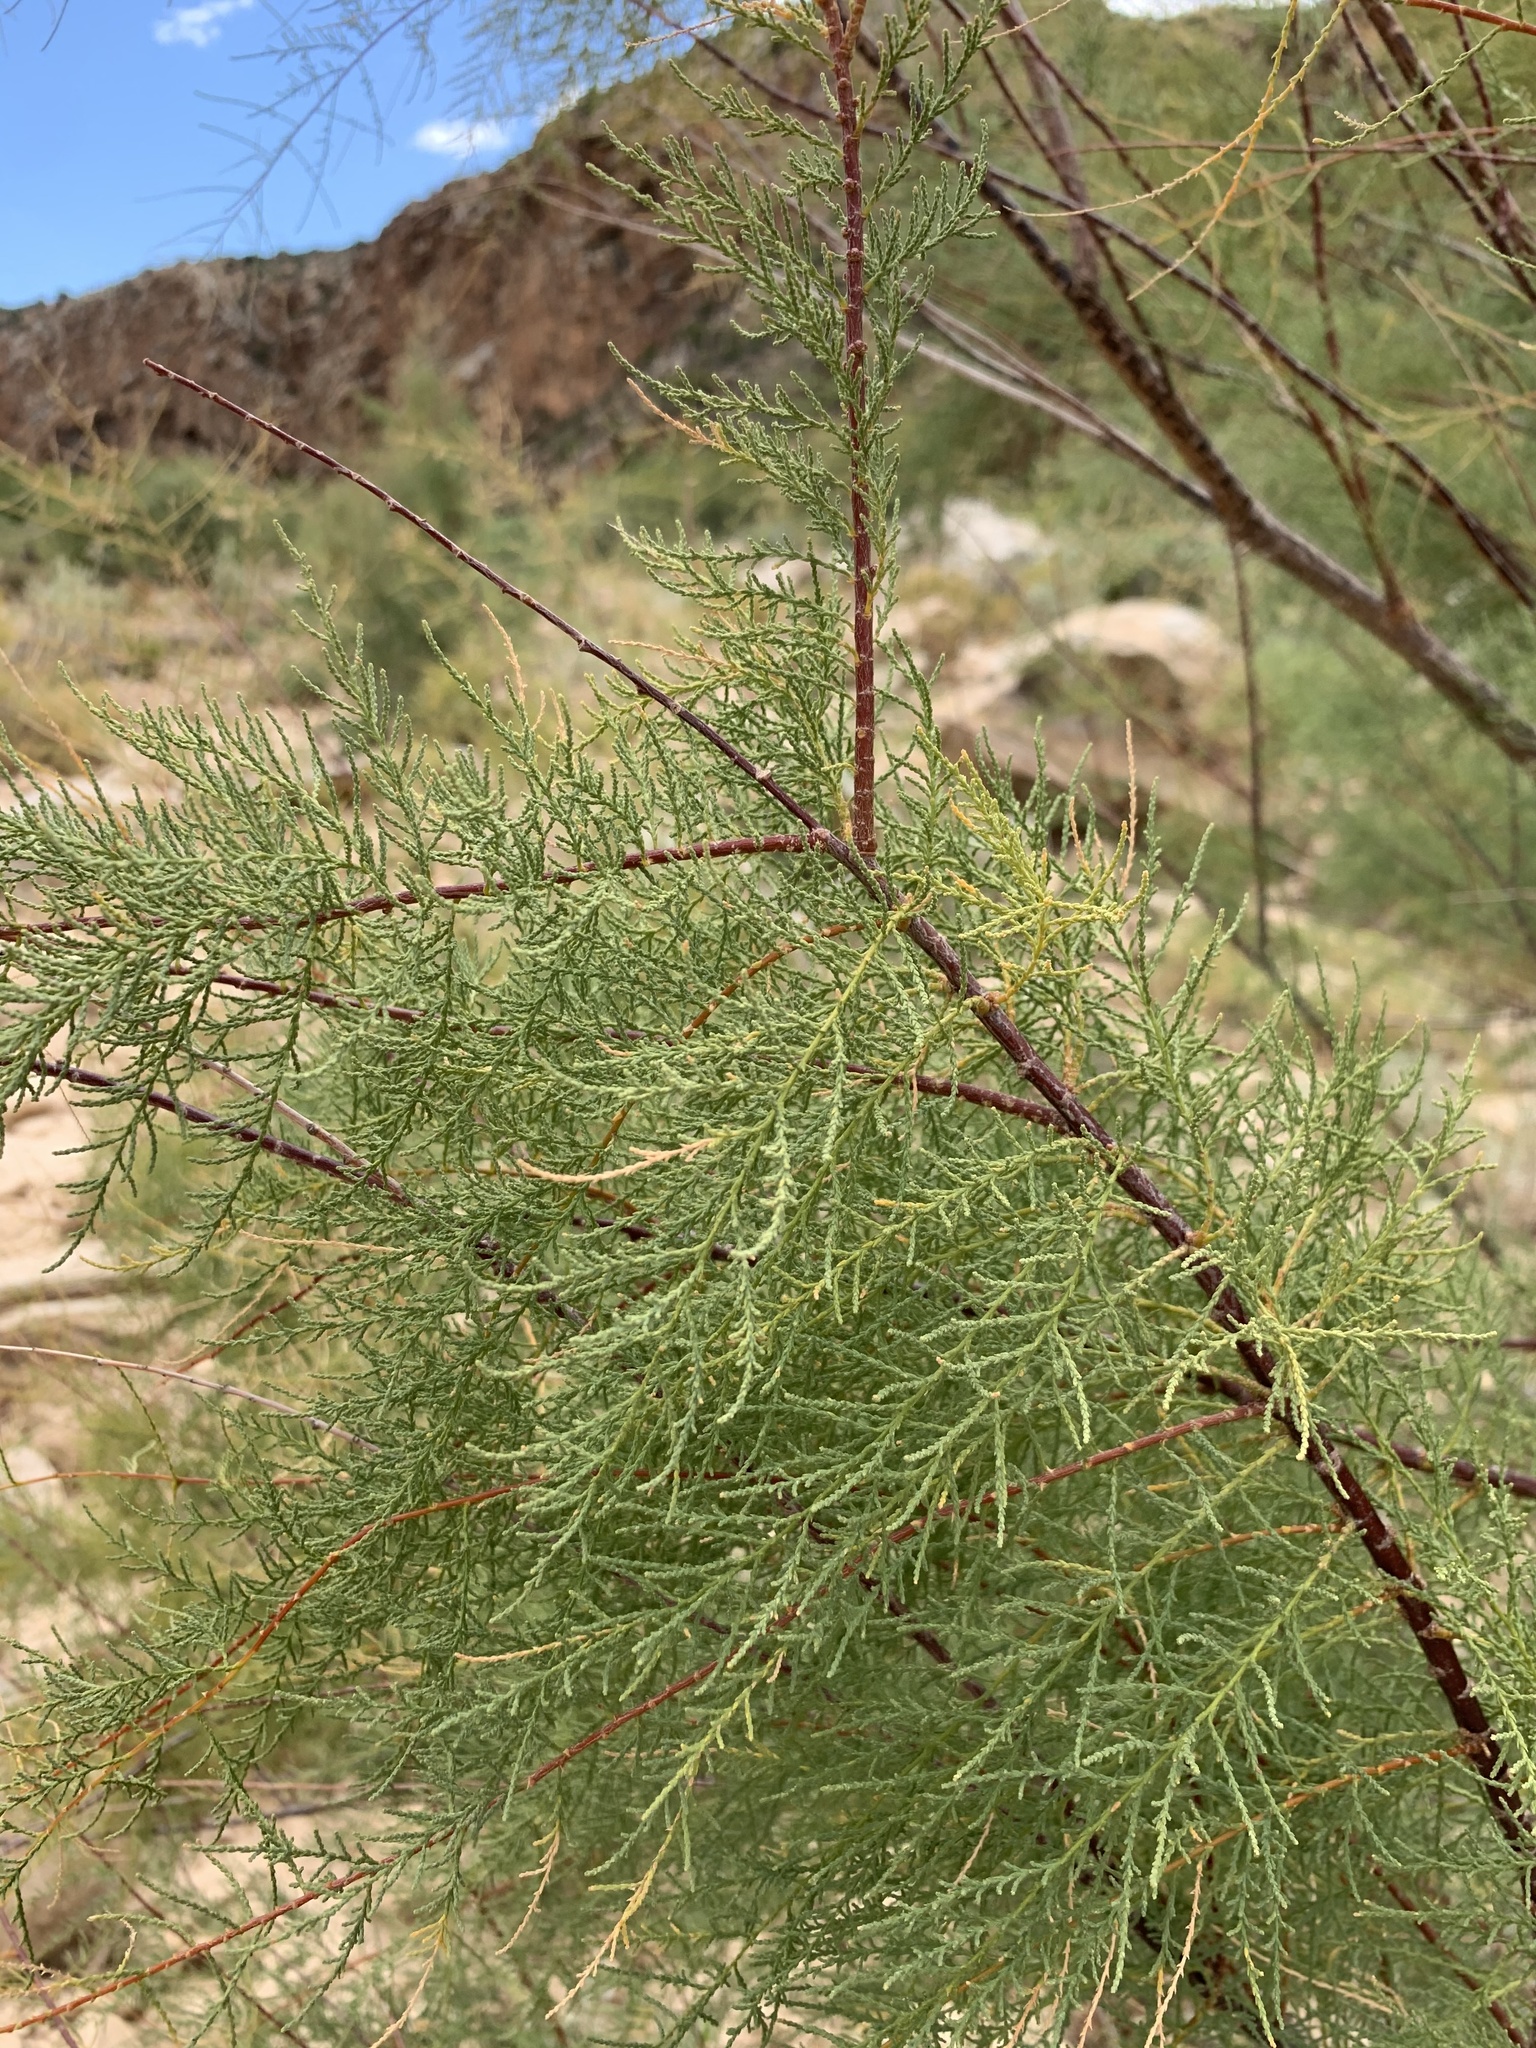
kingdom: Plantae
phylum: Tracheophyta
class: Magnoliopsida
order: Caryophyllales
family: Tamaricaceae
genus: Tamarix
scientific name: Tamarix ramosissima
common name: Pink tamarisk
